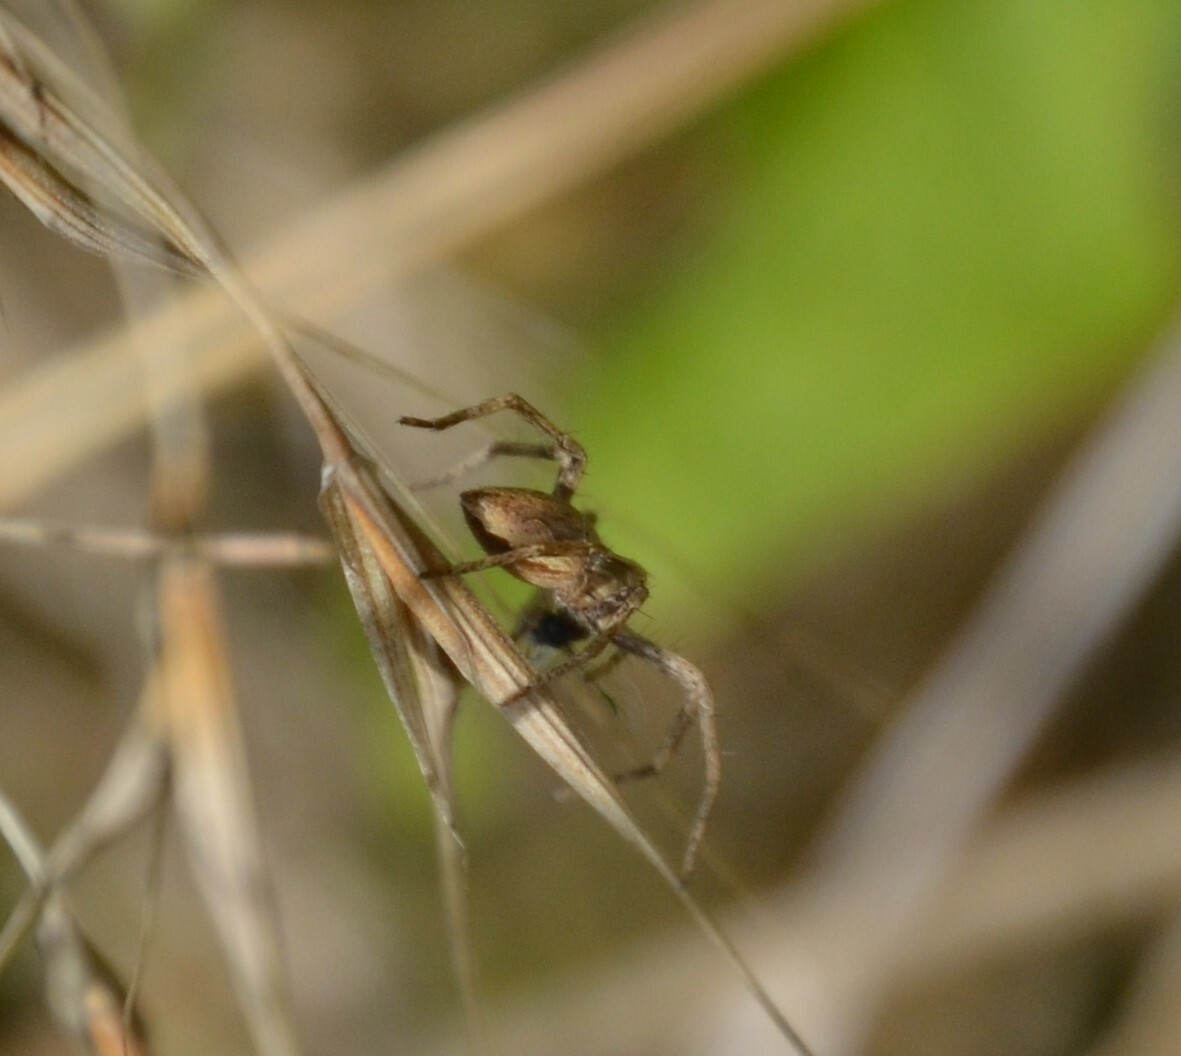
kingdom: Animalia
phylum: Arthropoda
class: Arachnida
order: Araneae
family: Pisauridae
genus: Pisaura
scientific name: Pisaura mirabilis
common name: Tent spider
